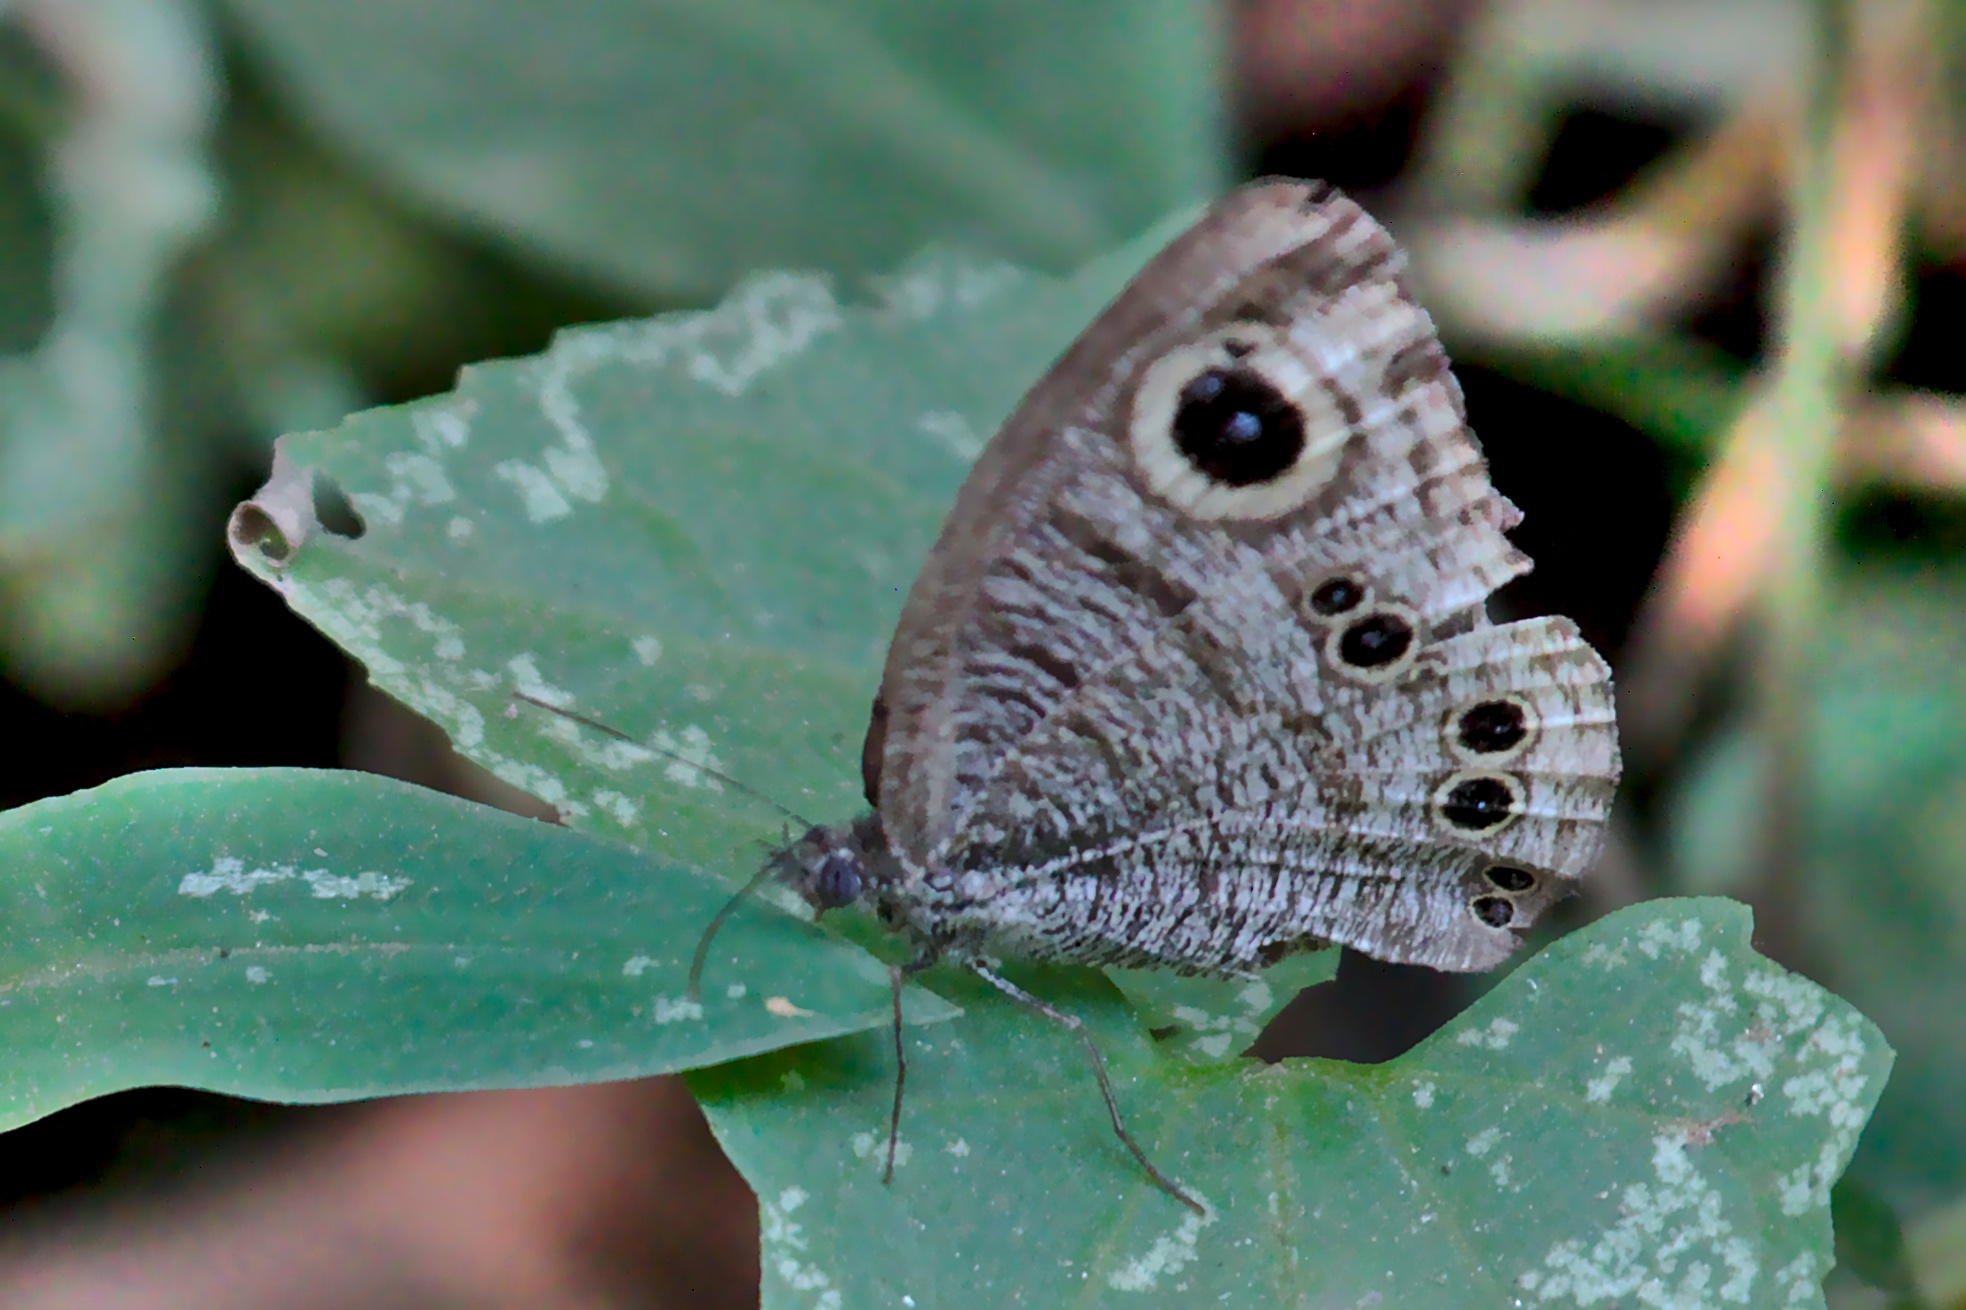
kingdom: Animalia
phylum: Arthropoda
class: Insecta
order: Lepidoptera
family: Nymphalidae
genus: Ypthima
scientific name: Ypthima baldus
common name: Common five-ring
